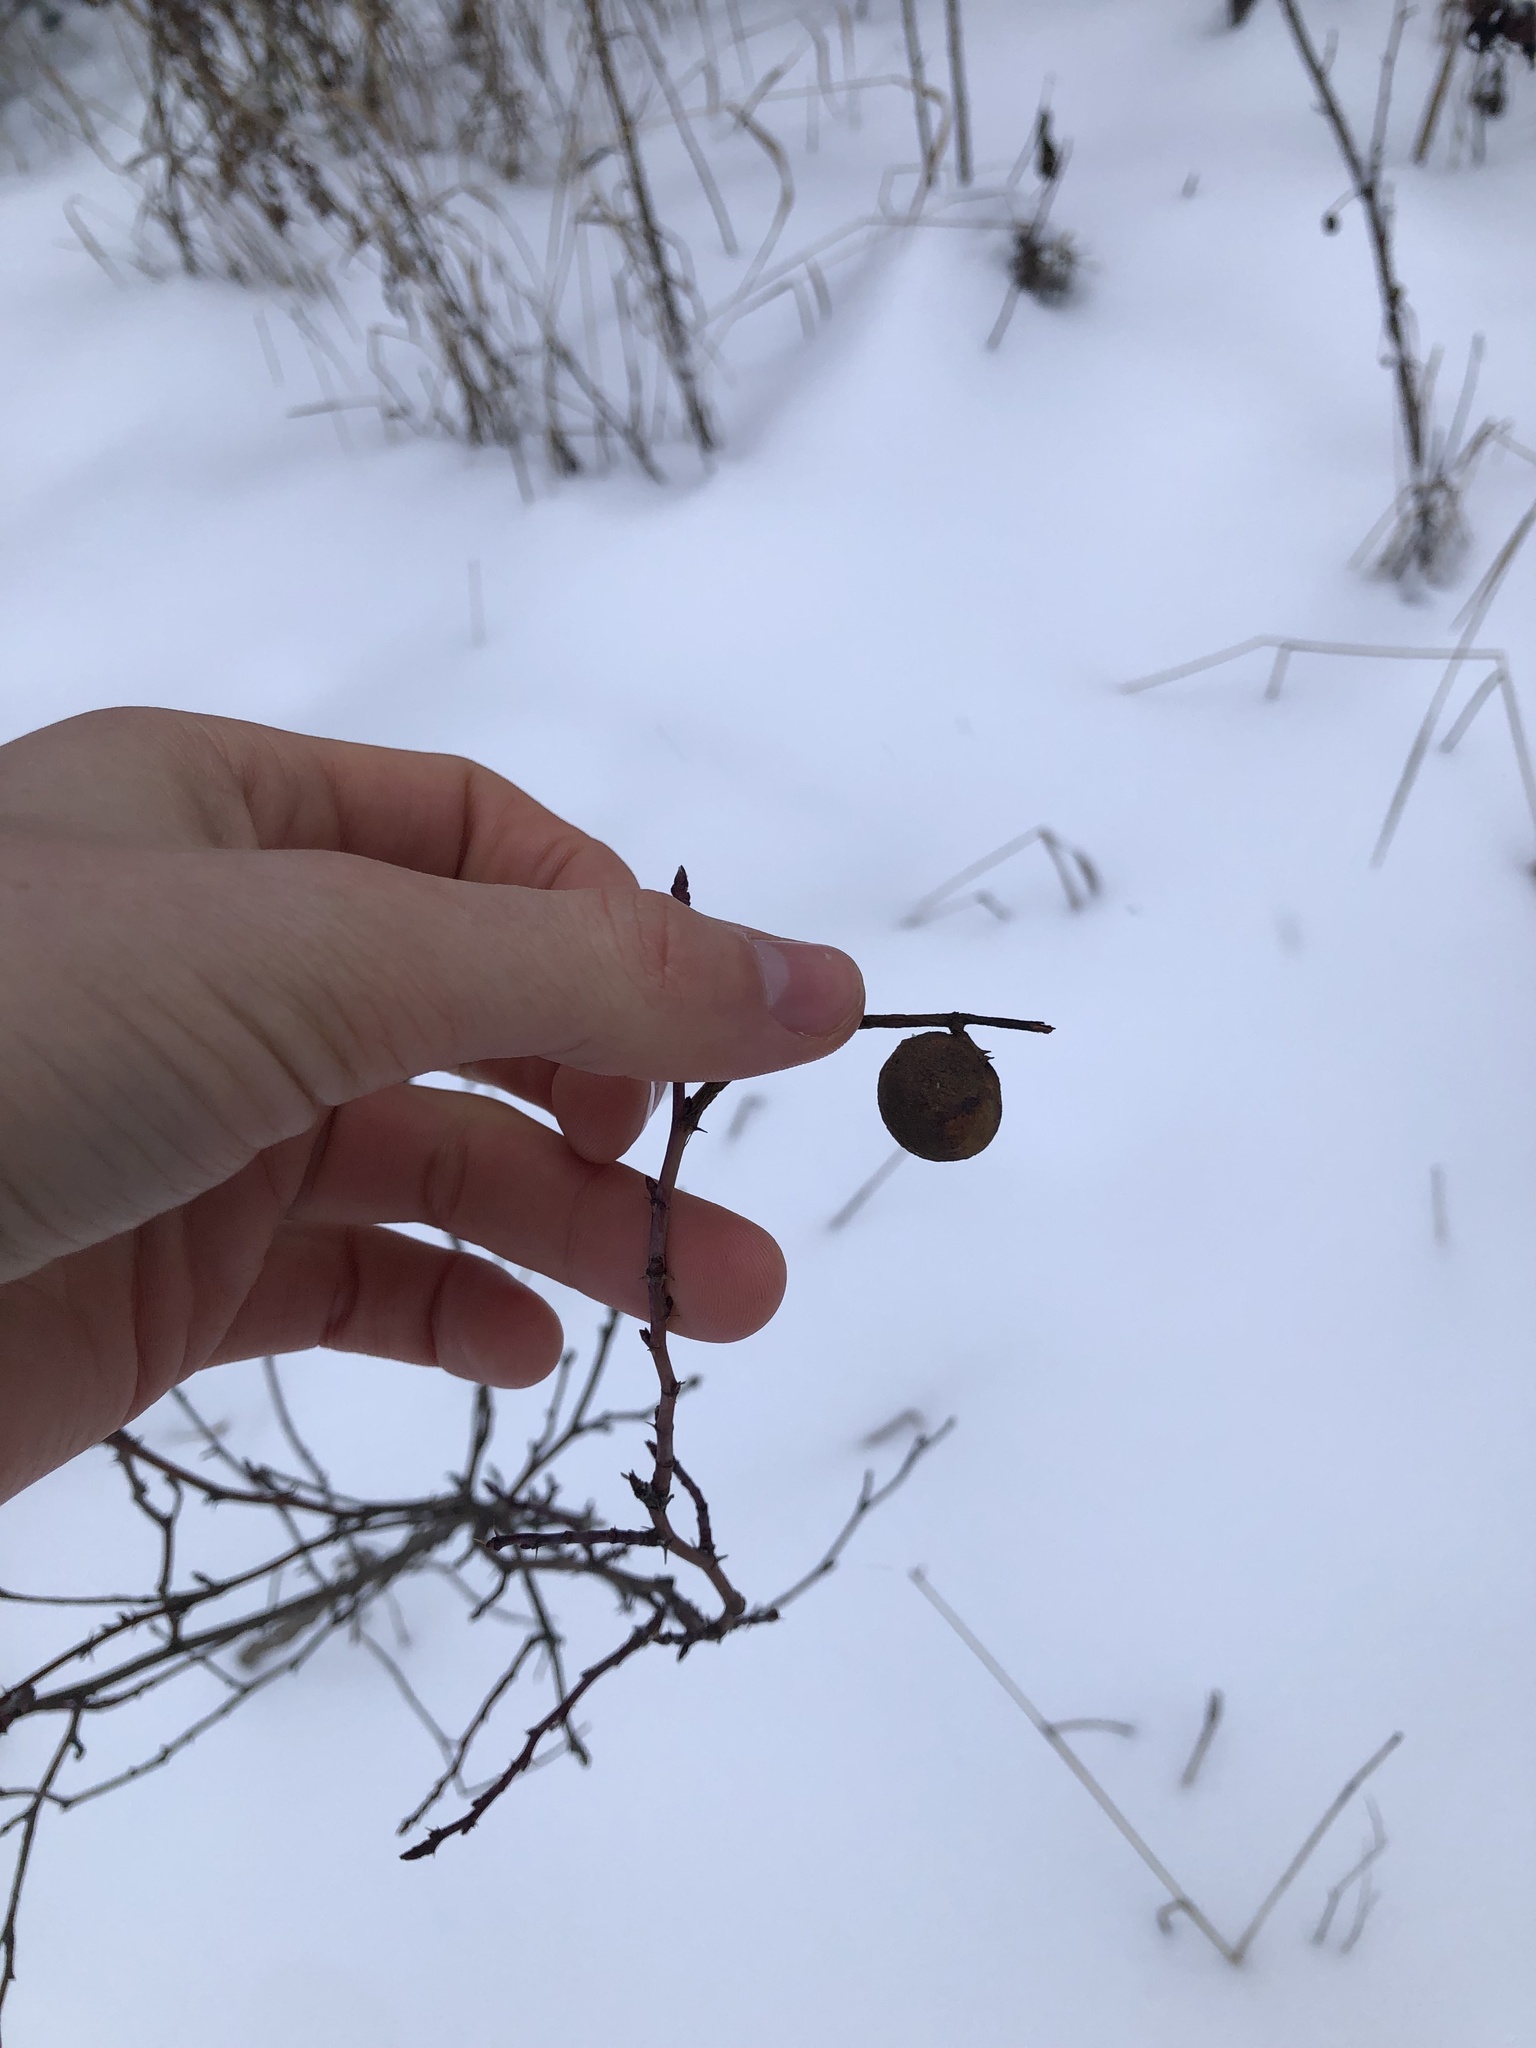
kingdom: Animalia
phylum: Arthropoda
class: Insecta
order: Hymenoptera
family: Cynipidae
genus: Diplolepis
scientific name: Diplolepis variabilis
